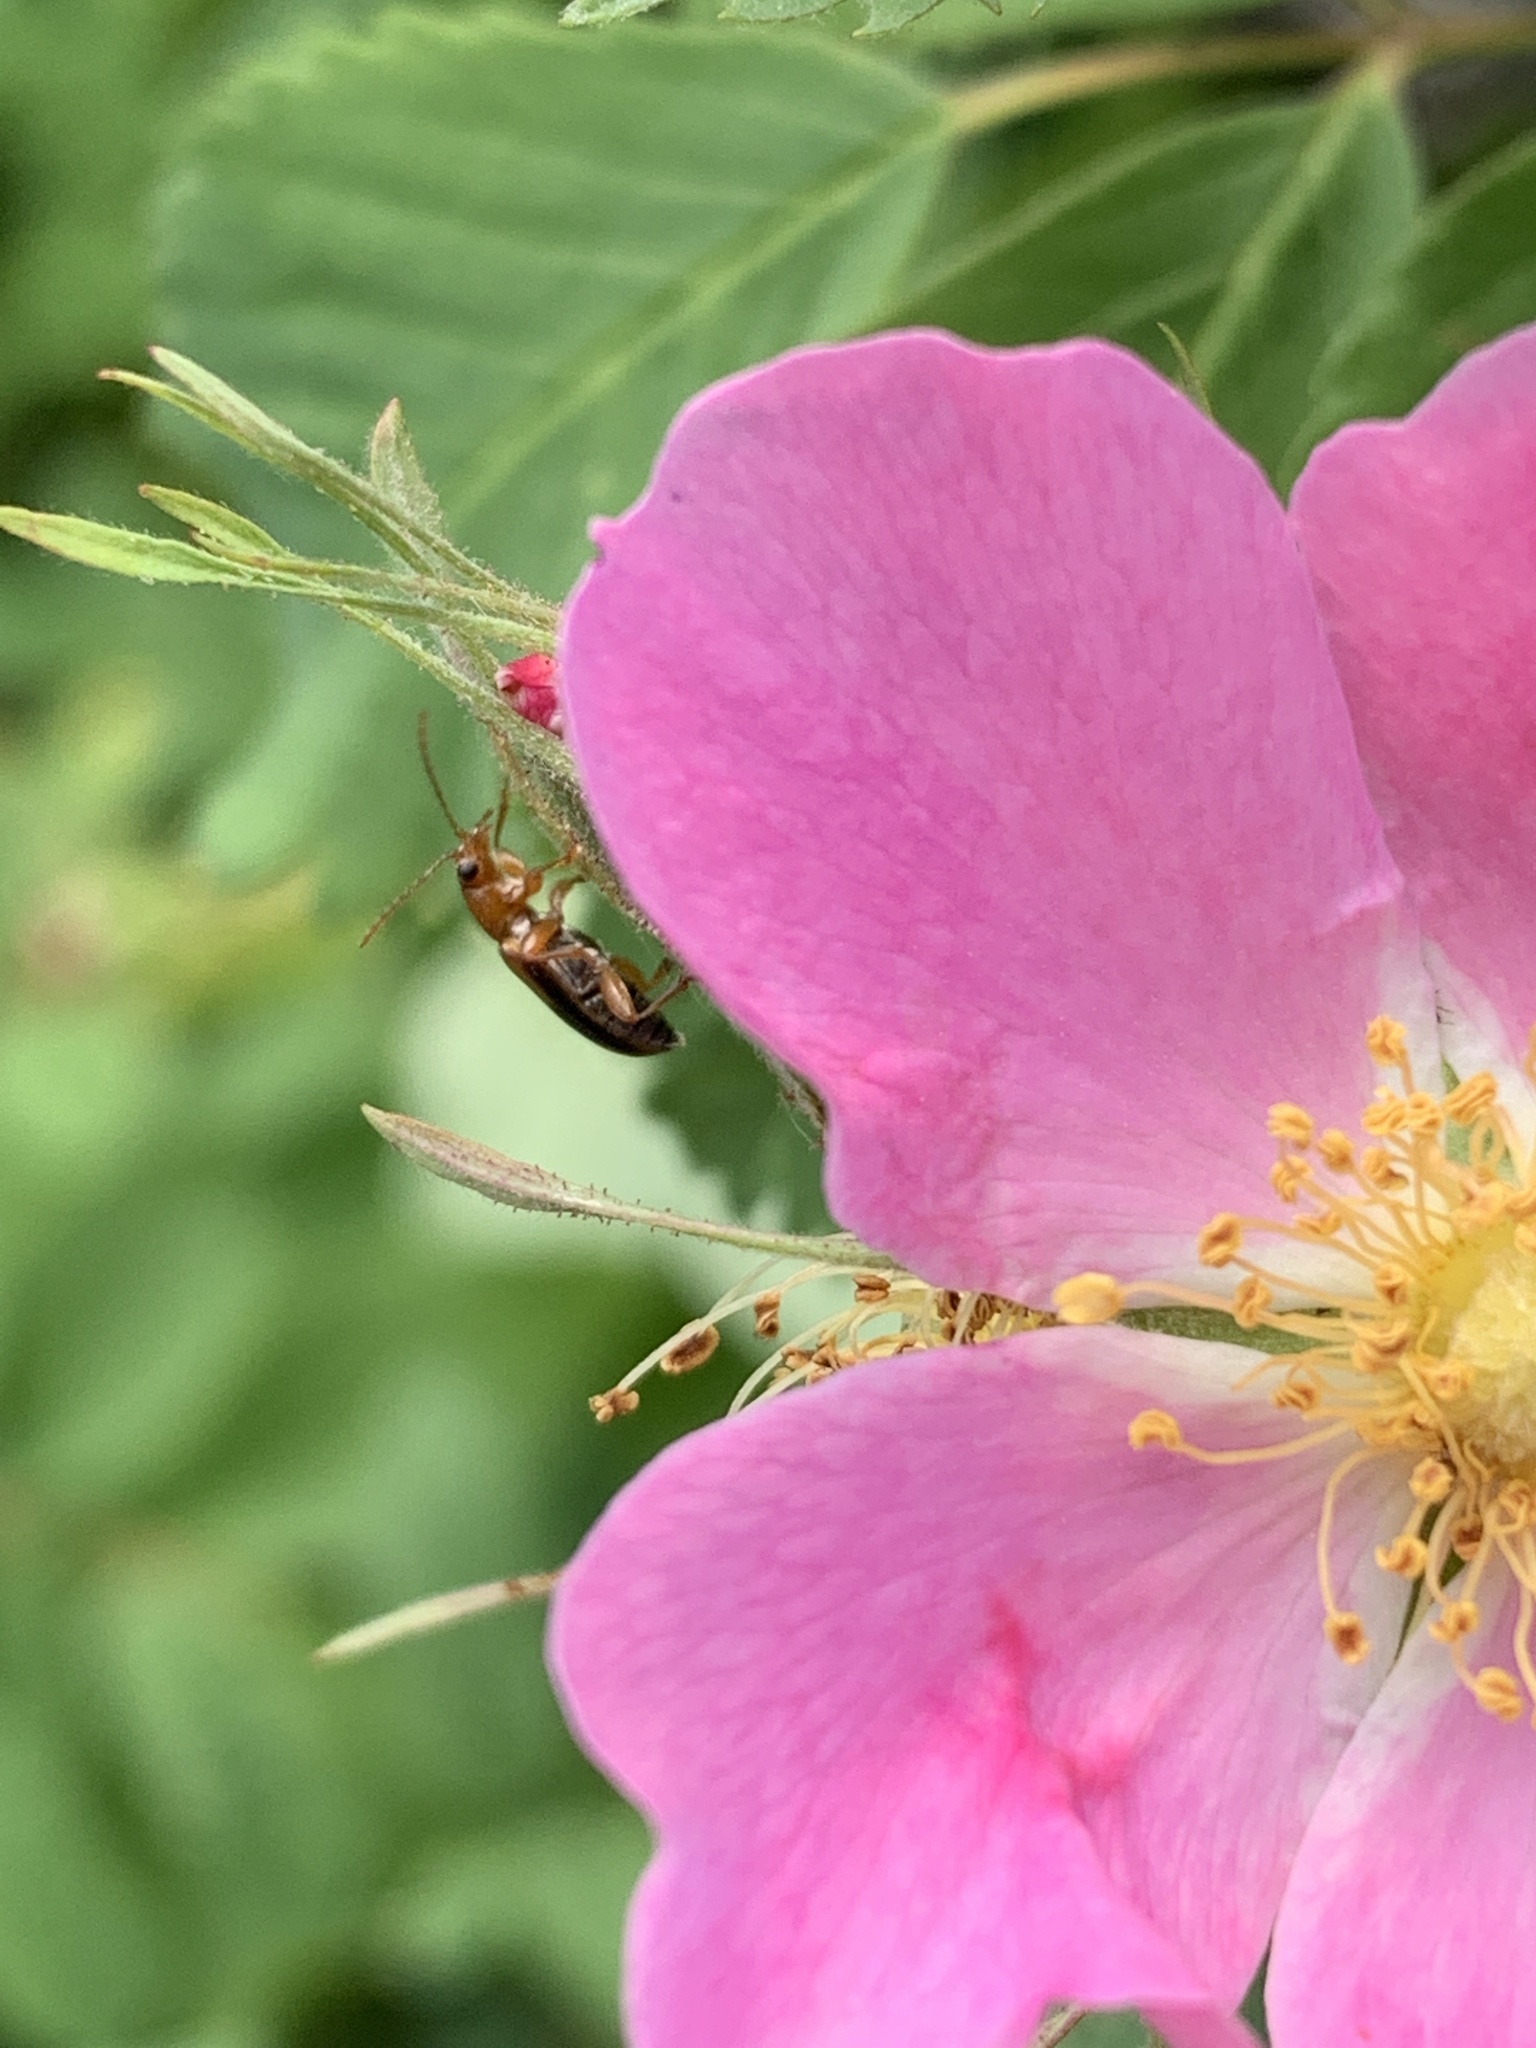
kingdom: Animalia
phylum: Arthropoda
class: Insecta
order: Coleoptera
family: Orsodacnidae
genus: Orsodacne
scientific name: Orsodacne atra
